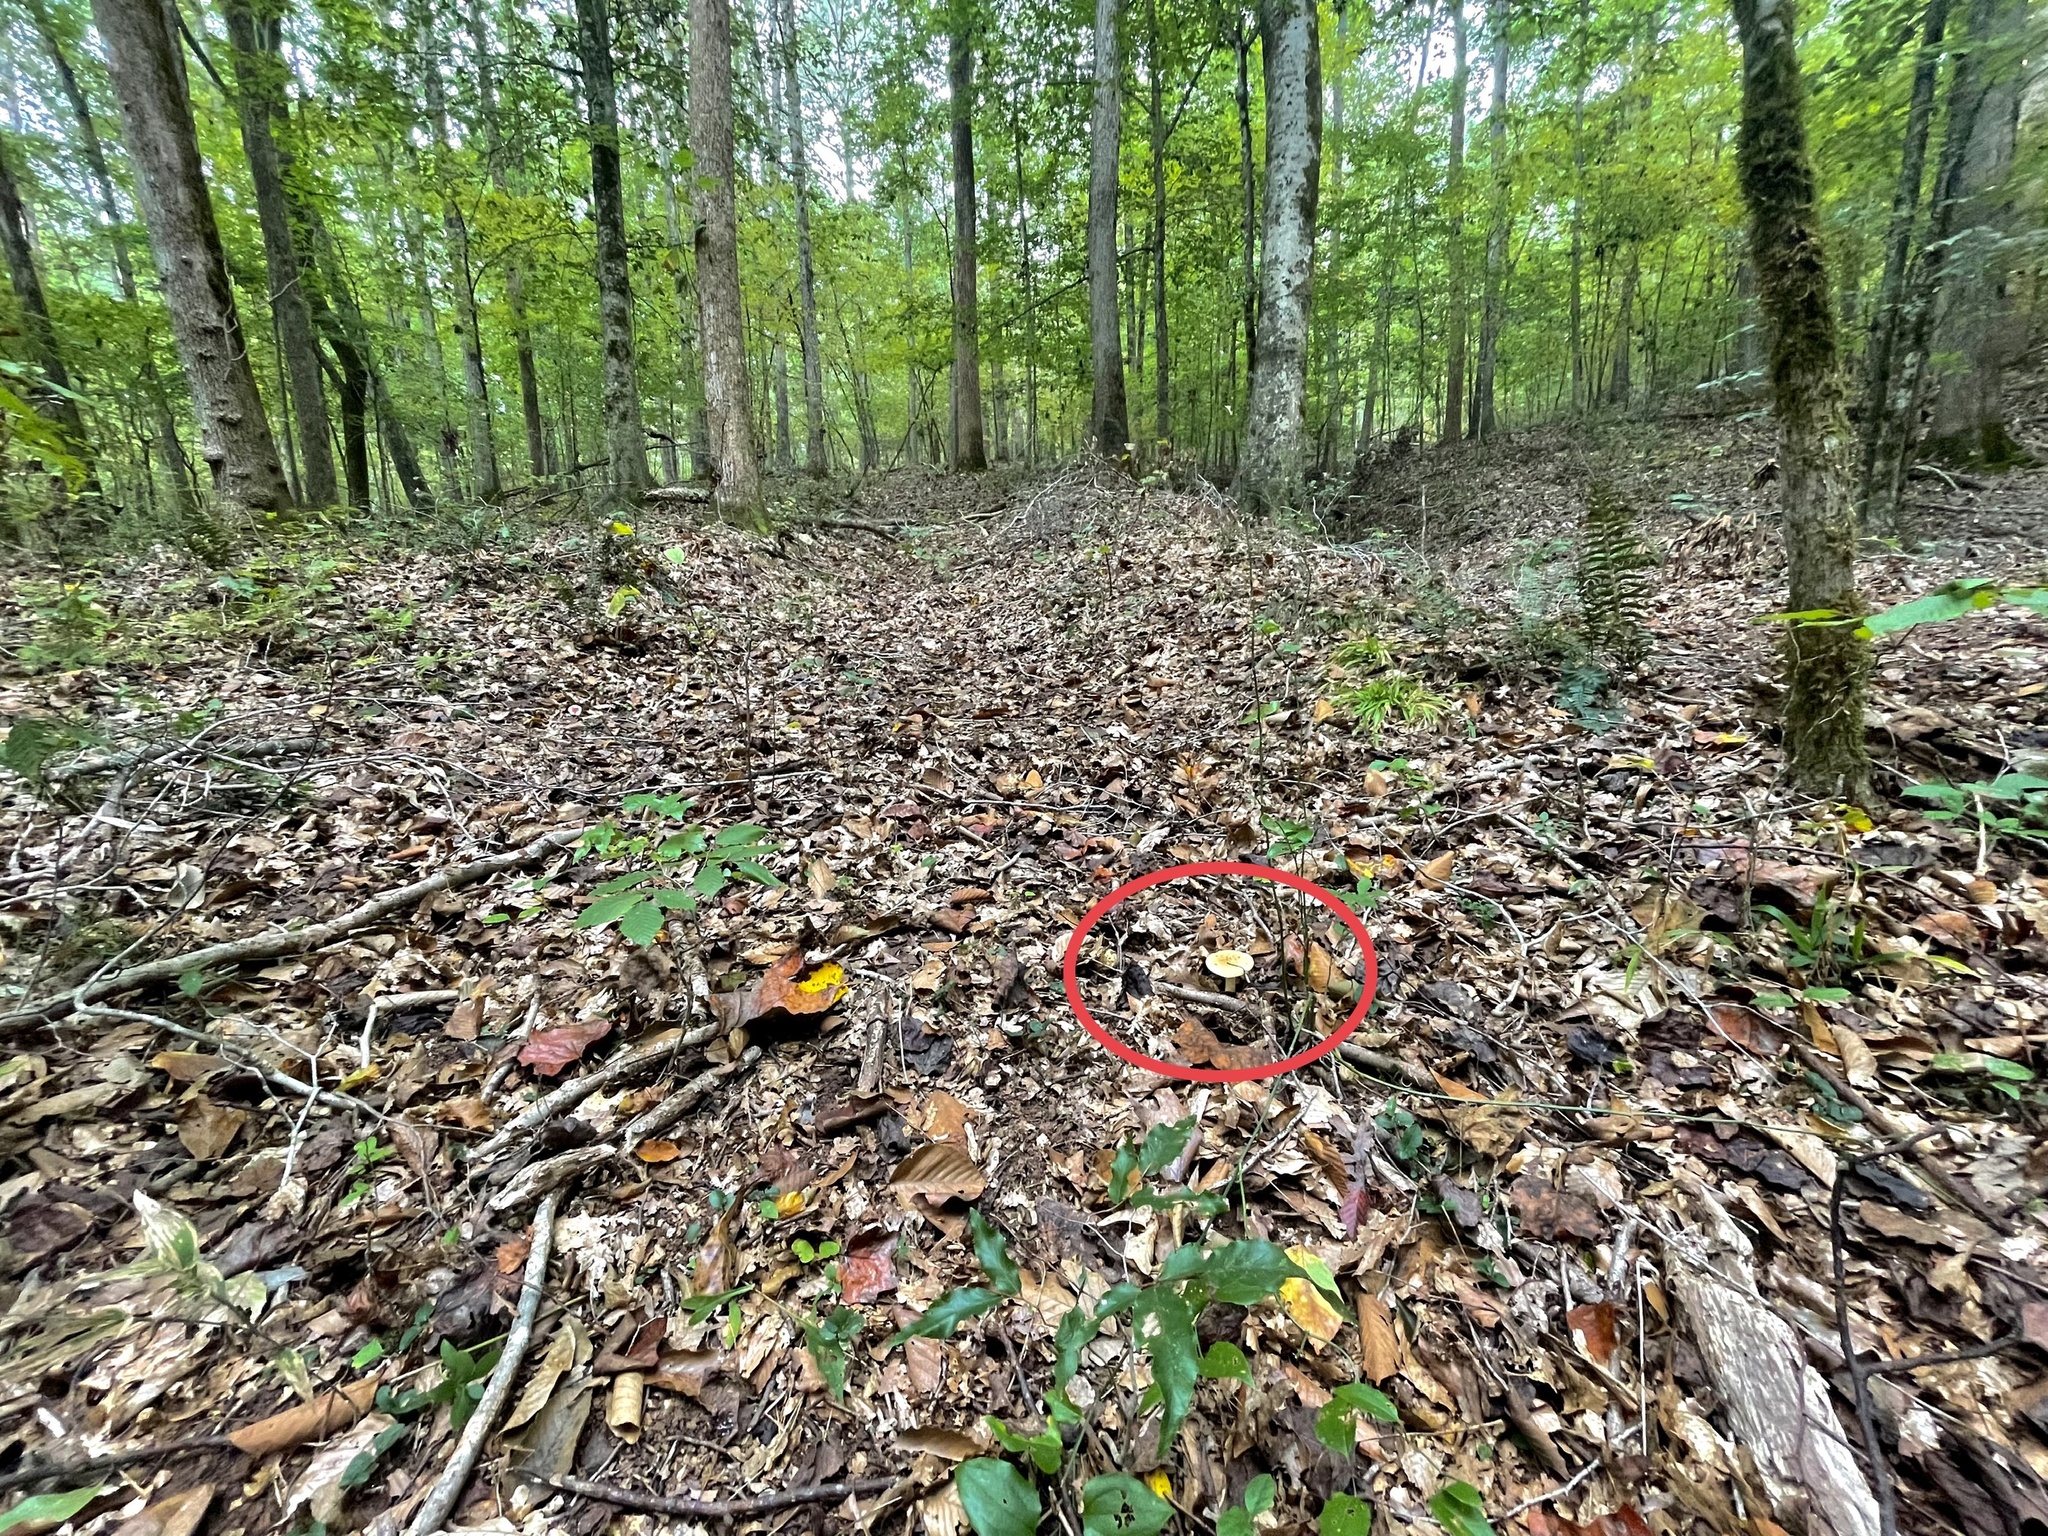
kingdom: Fungi
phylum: Basidiomycota
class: Agaricomycetes
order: Russulales
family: Russulaceae
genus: Russula
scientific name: Russula ballouii
